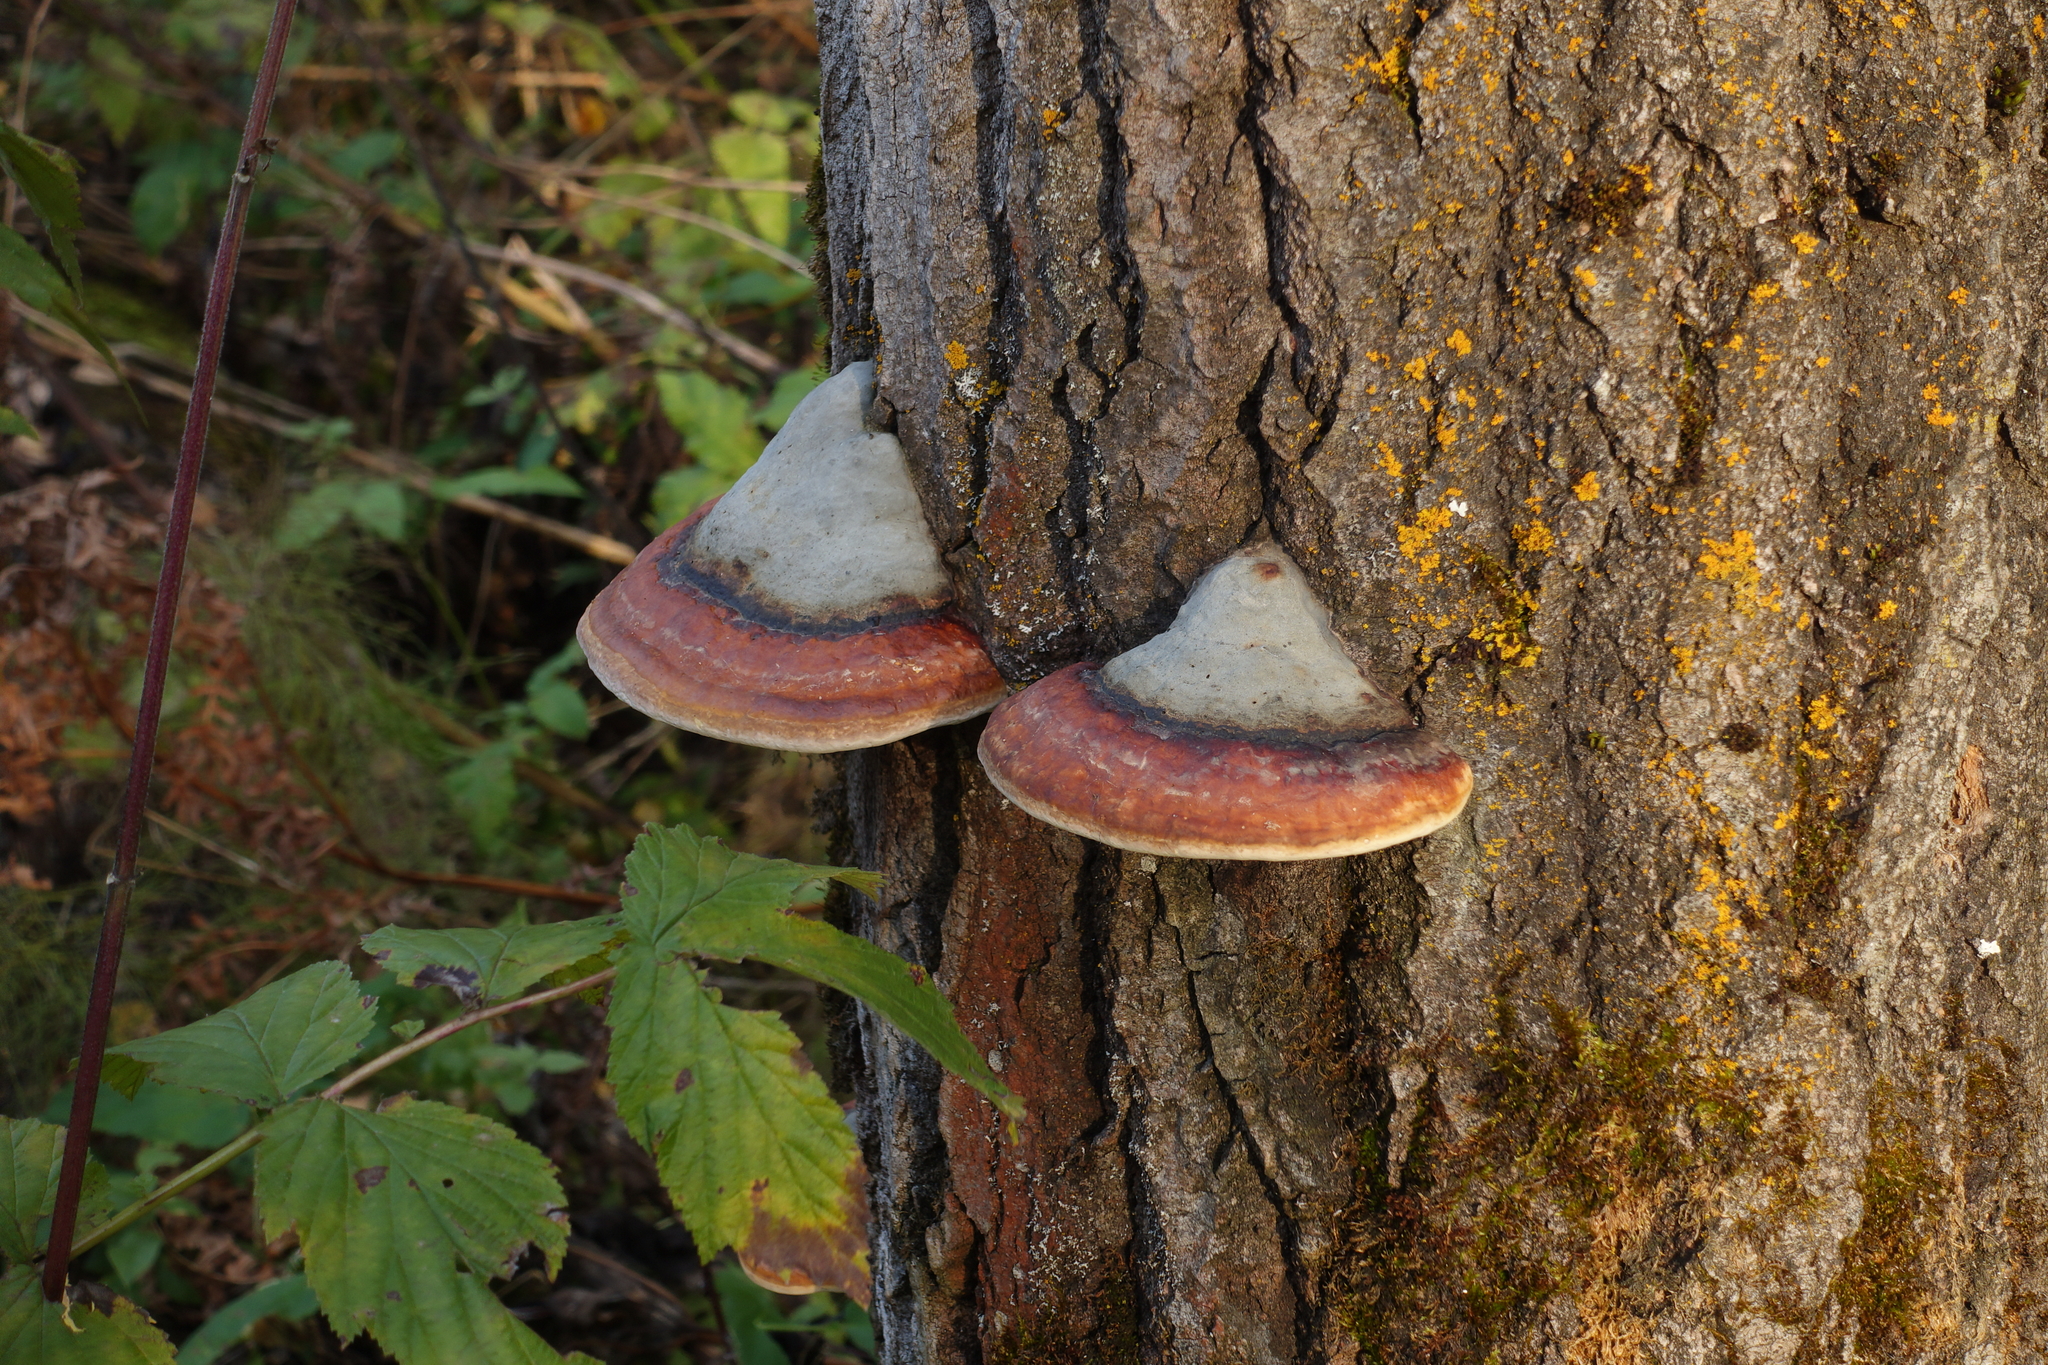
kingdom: Fungi
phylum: Basidiomycota
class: Agaricomycetes
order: Polyporales
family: Fomitopsidaceae
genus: Fomitopsis
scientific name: Fomitopsis pinicola
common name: Red-belted bracket
